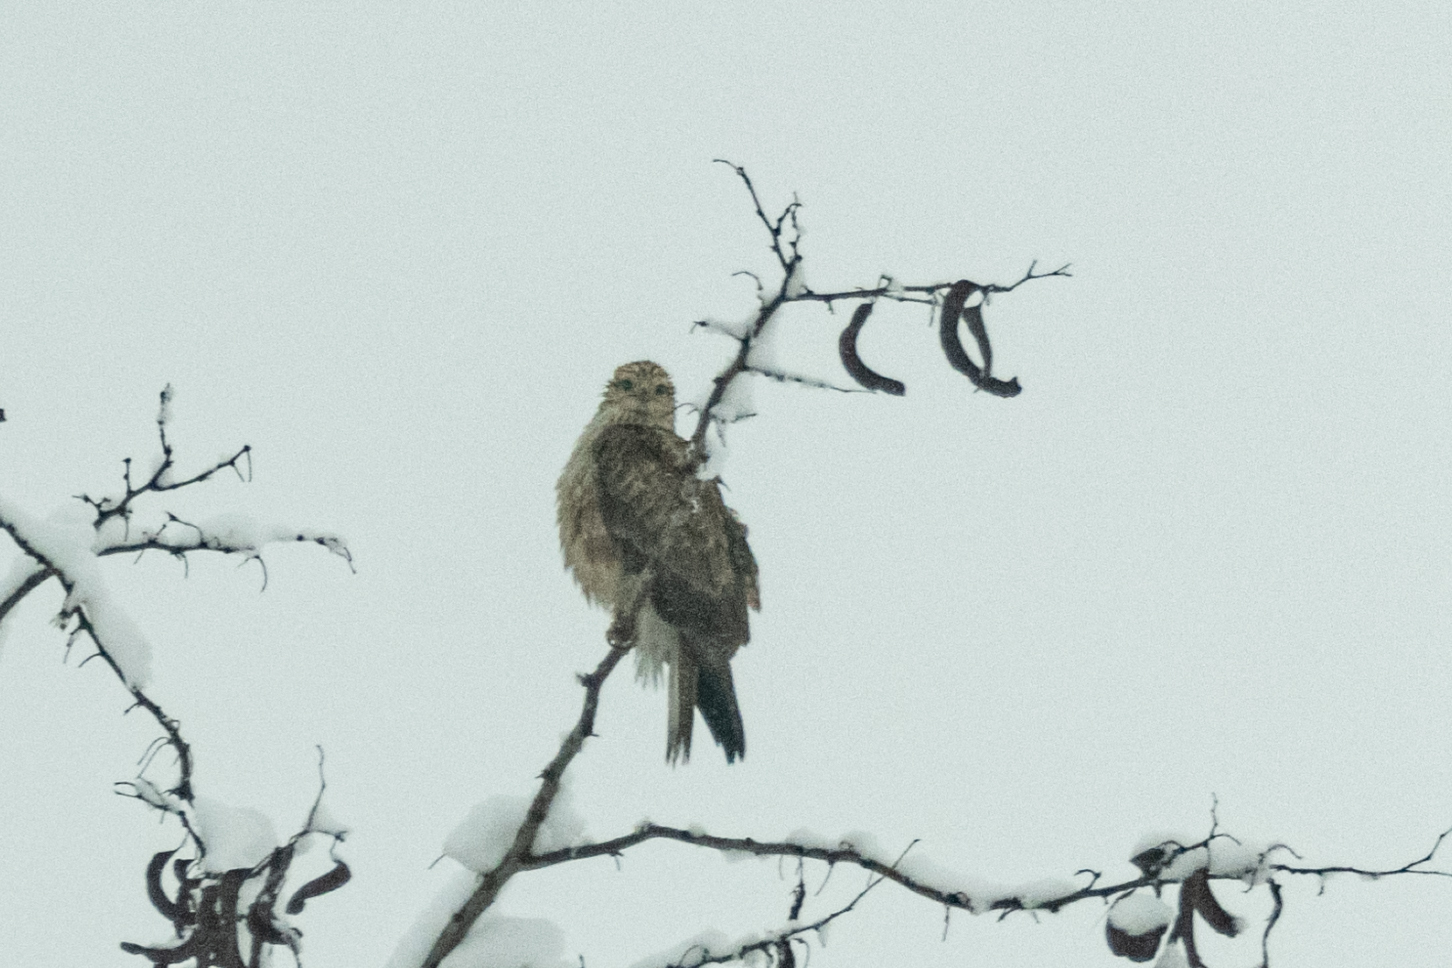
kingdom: Animalia
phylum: Chordata
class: Aves
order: Accipitriformes
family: Accipitridae
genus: Buteo
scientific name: Buteo rufinus
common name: Long-legged buzzard
